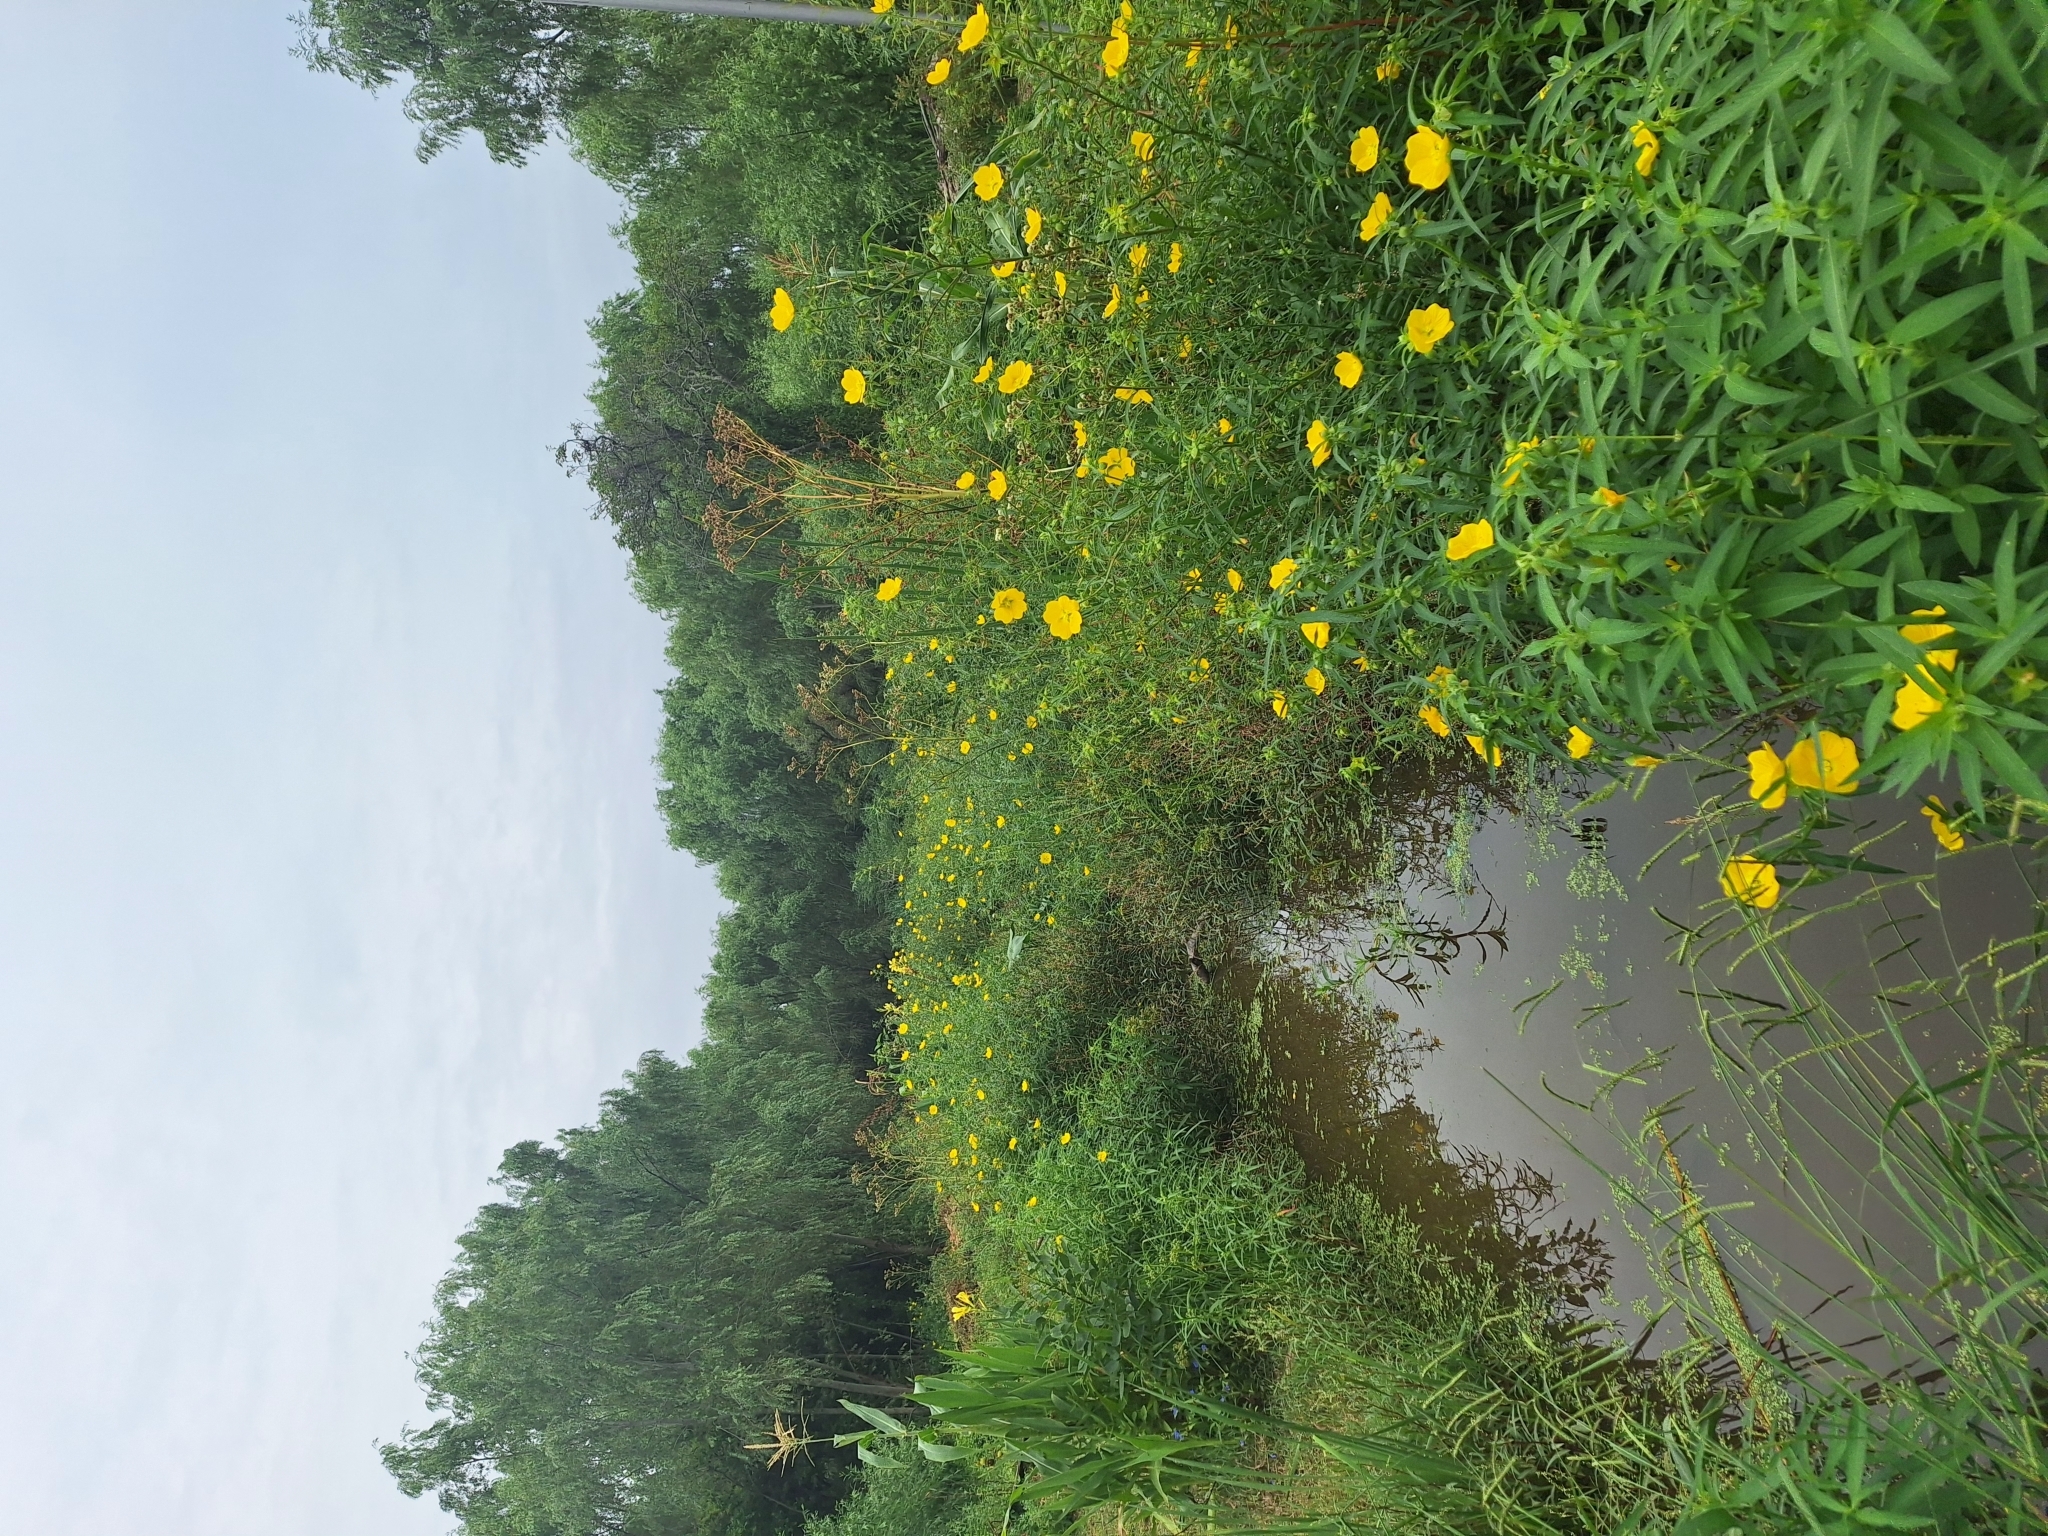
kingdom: Plantae
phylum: Tracheophyta
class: Magnoliopsida
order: Myrtales
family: Onagraceae
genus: Ludwigia
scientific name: Ludwigia bonariensis
